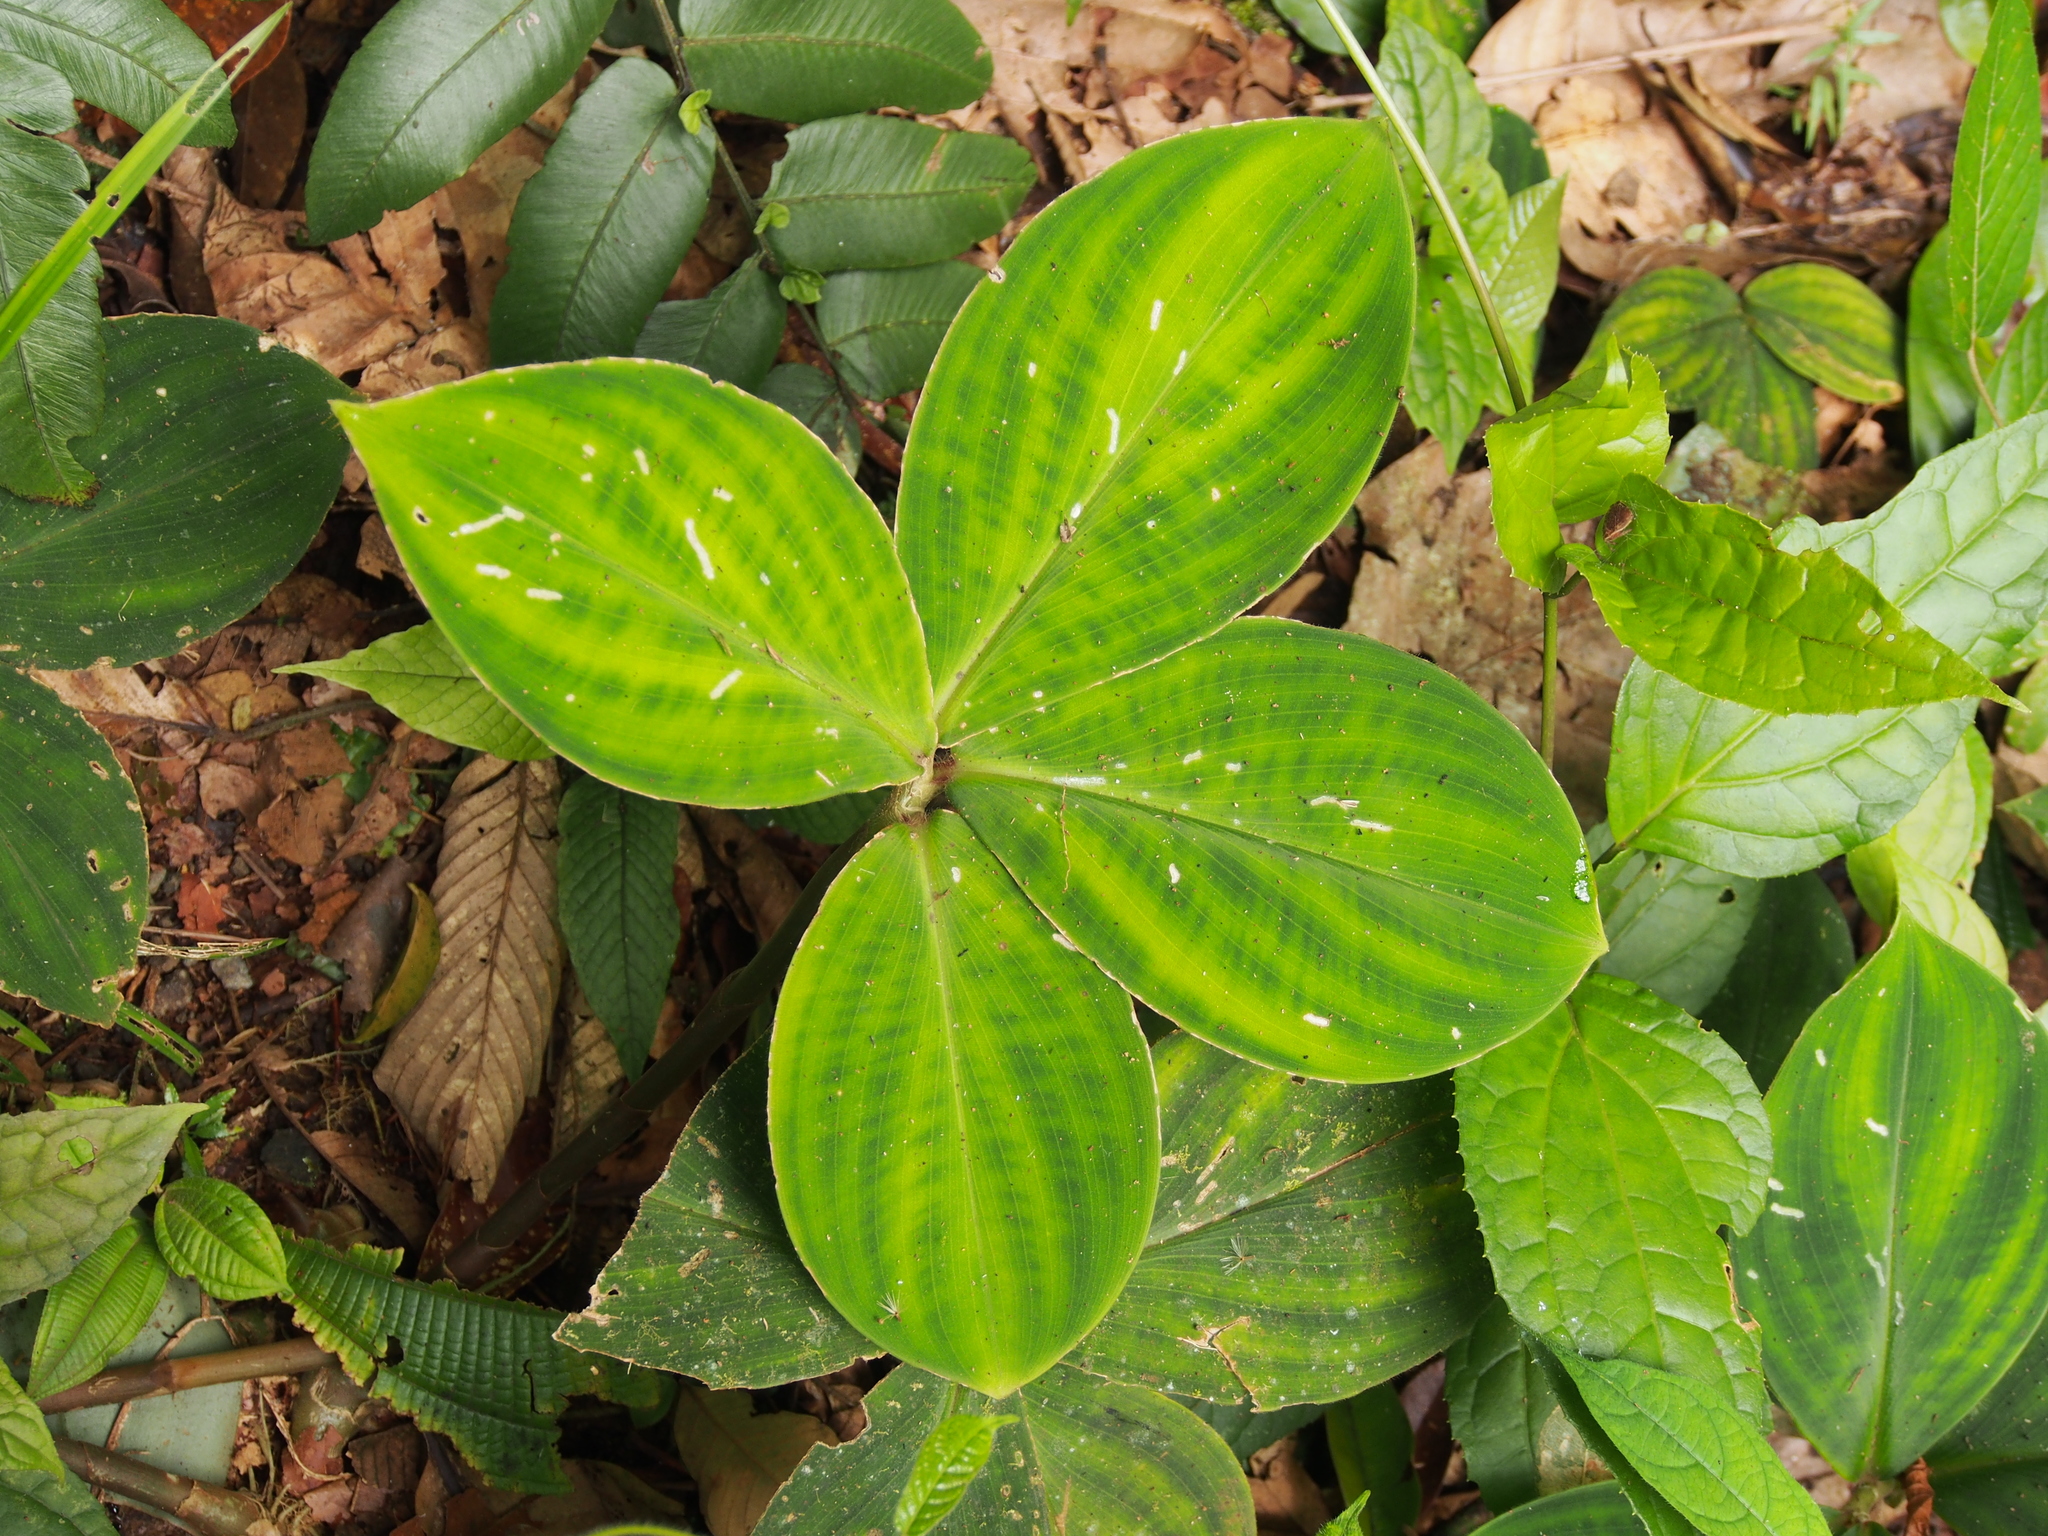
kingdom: Plantae
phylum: Tracheophyta
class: Liliopsida
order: Zingiberales
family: Costaceae
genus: Costus
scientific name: Costus elegans
